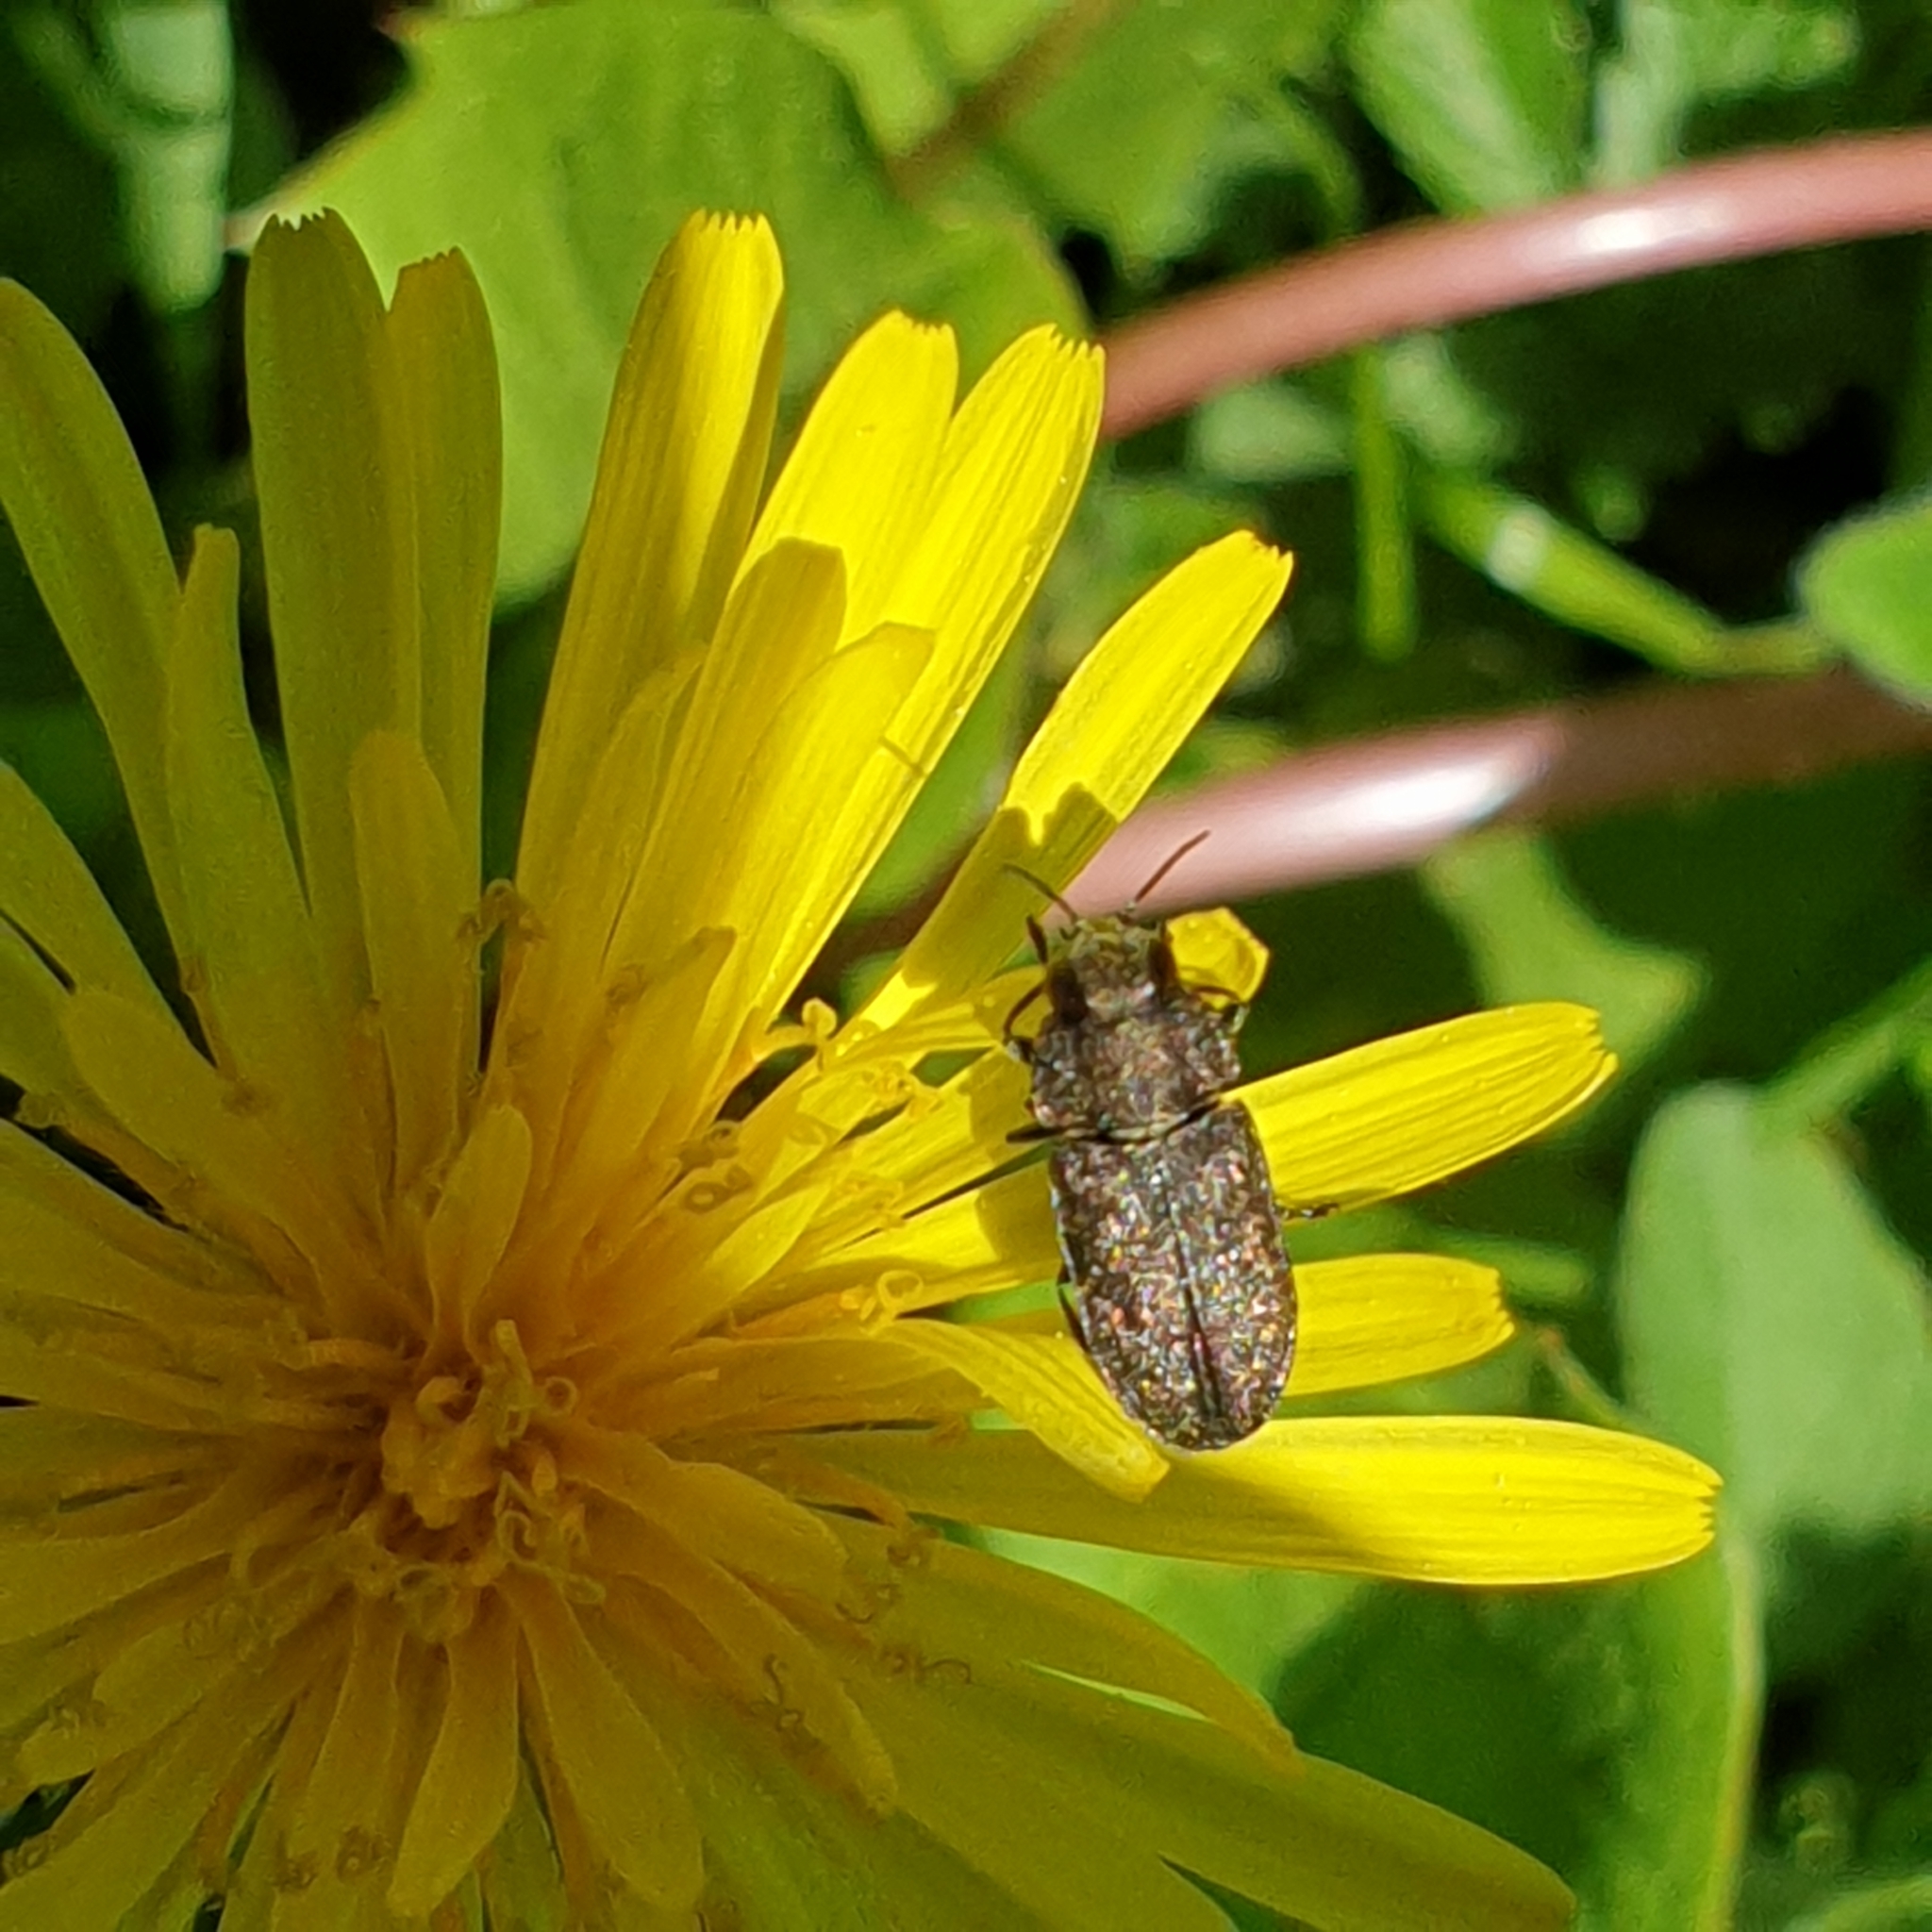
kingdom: Animalia
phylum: Arthropoda
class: Insecta
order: Coleoptera
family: Buprestidae
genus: Anthaxia
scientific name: Anthaxia morio
